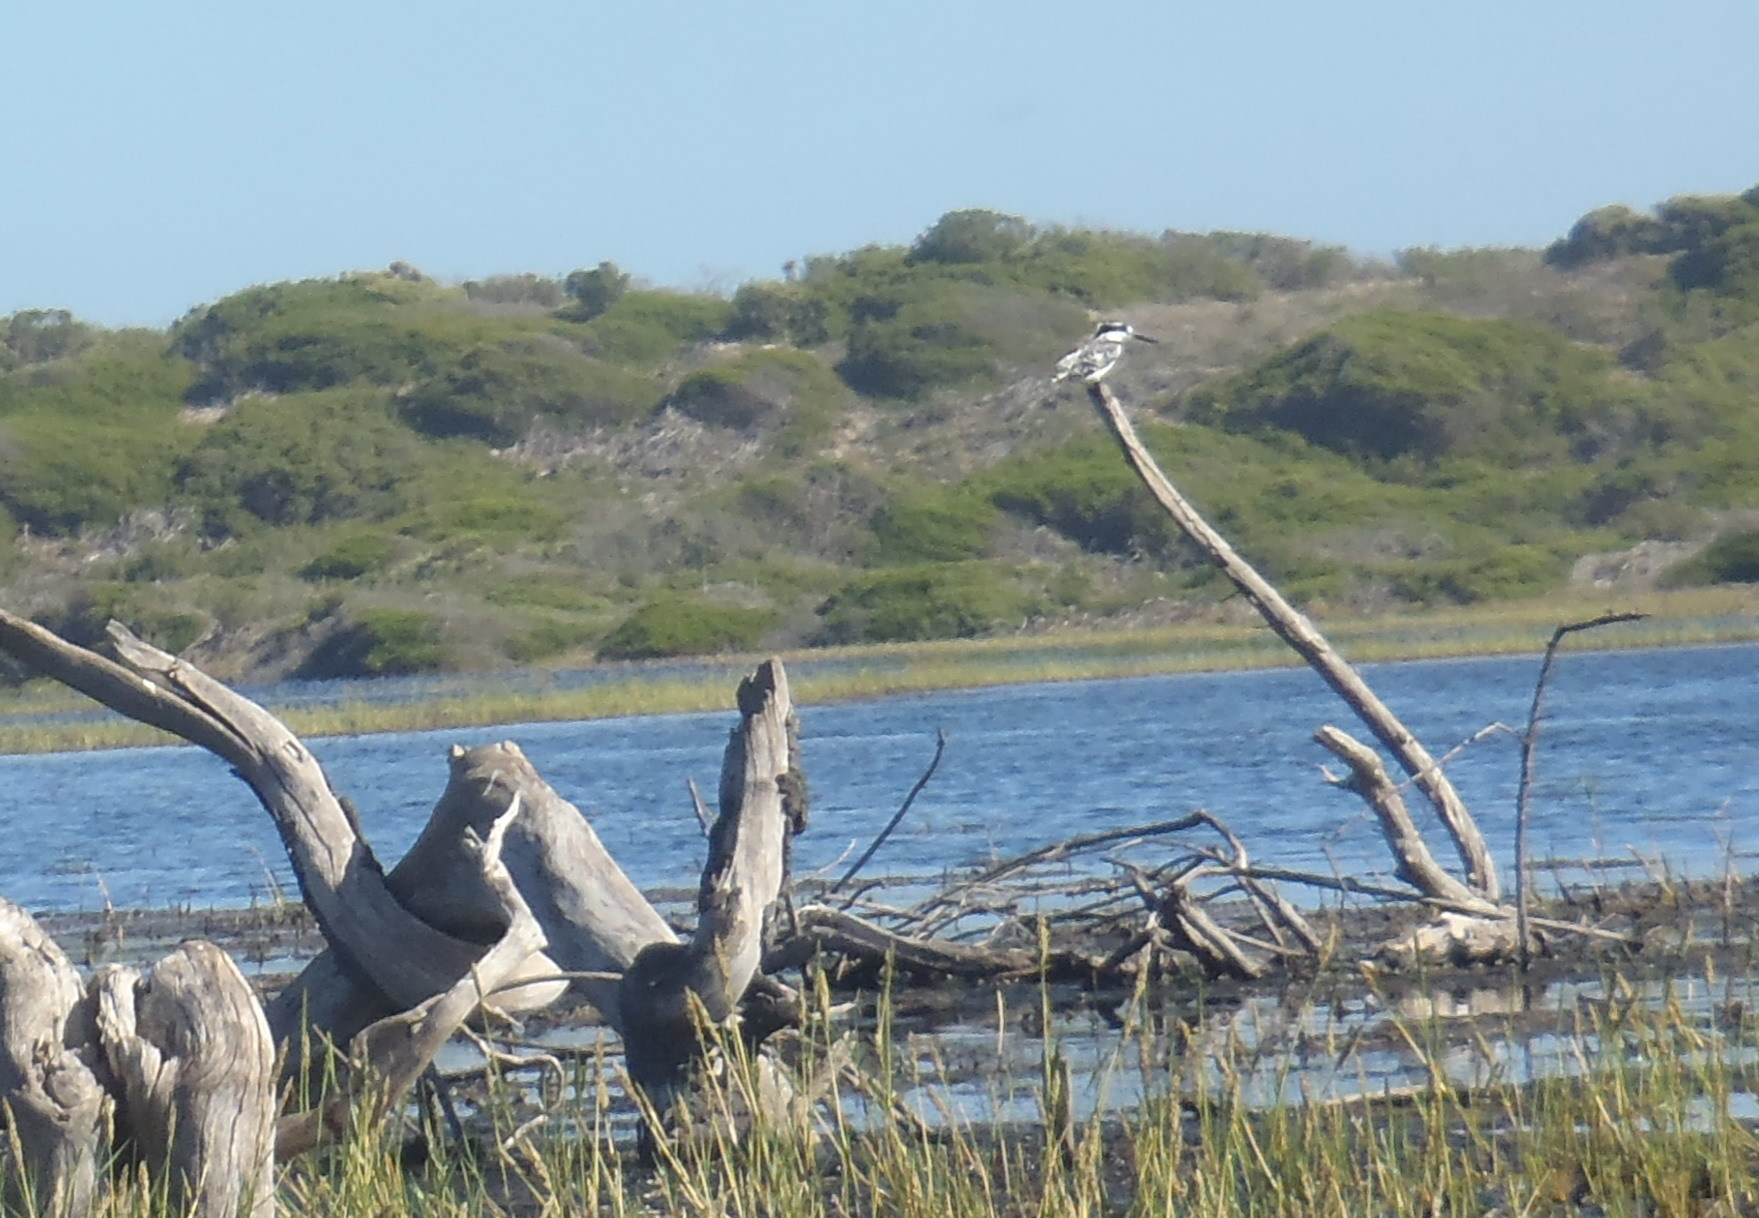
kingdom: Animalia
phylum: Chordata
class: Aves
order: Coraciiformes
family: Alcedinidae
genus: Ceryle
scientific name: Ceryle rudis
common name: Pied kingfisher
